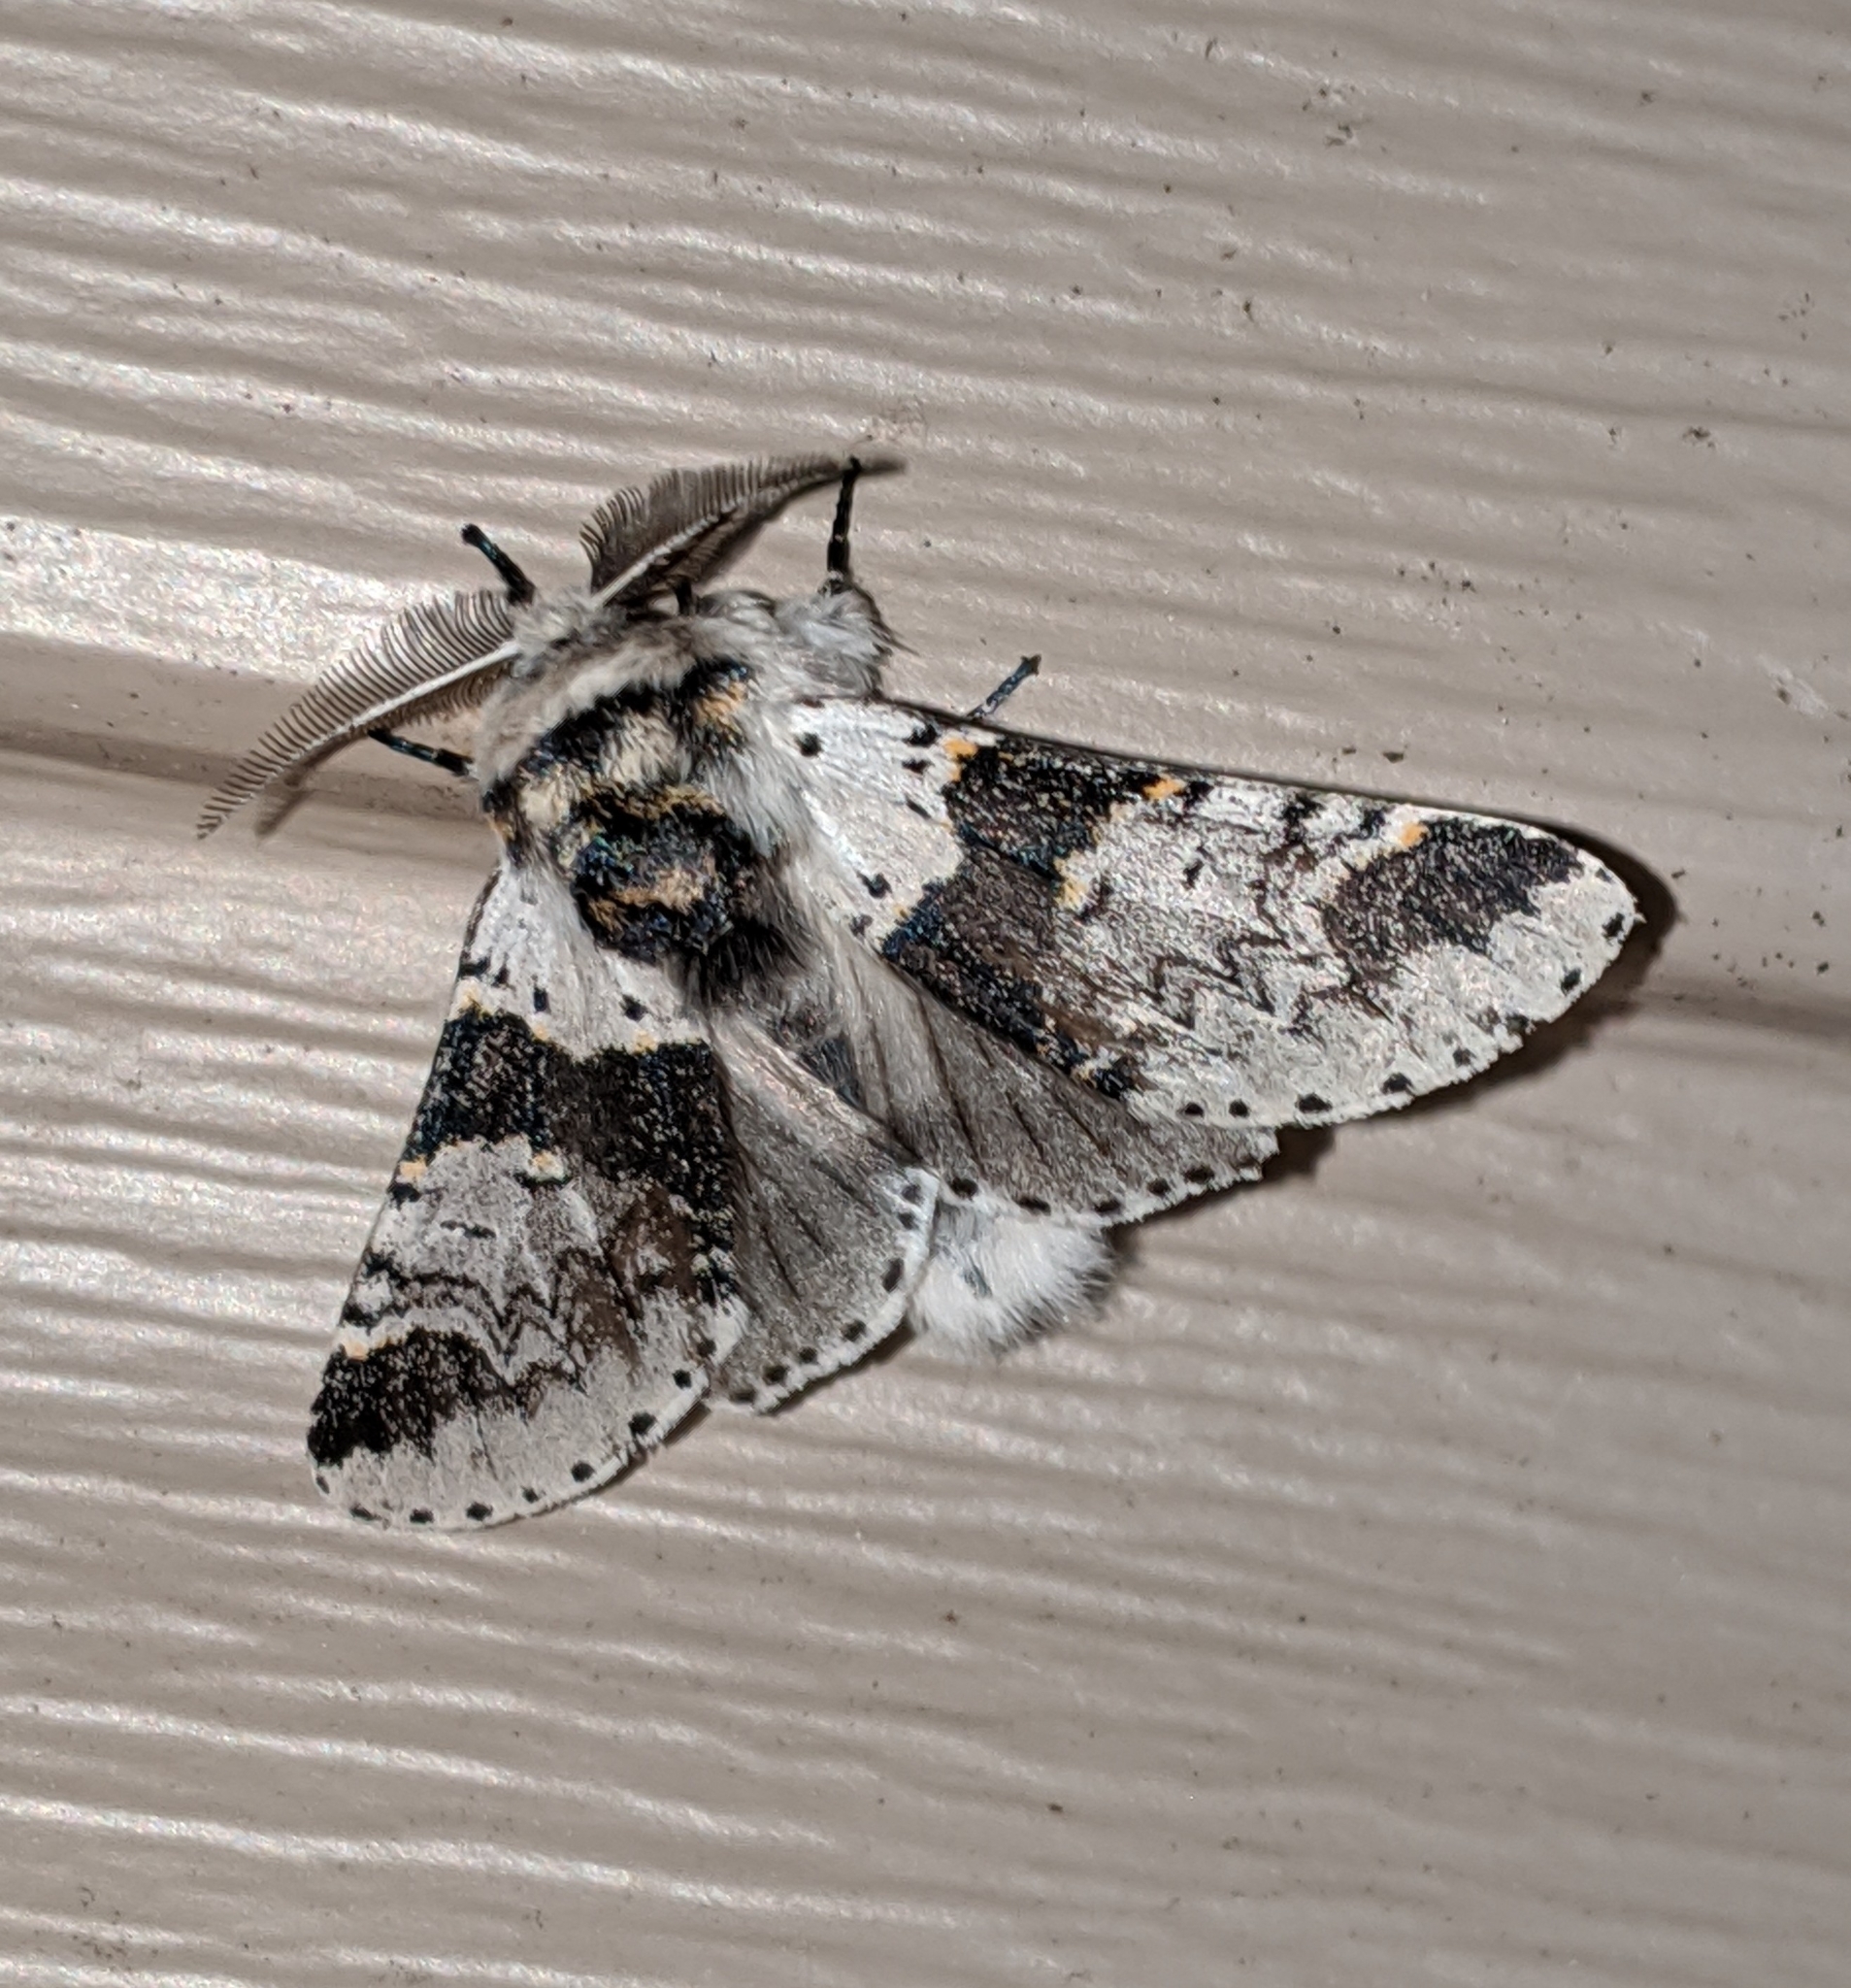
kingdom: Animalia
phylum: Arthropoda
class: Insecta
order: Lepidoptera
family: Notodontidae
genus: Furcula
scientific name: Furcula occidentalis
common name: Western furcula moth
